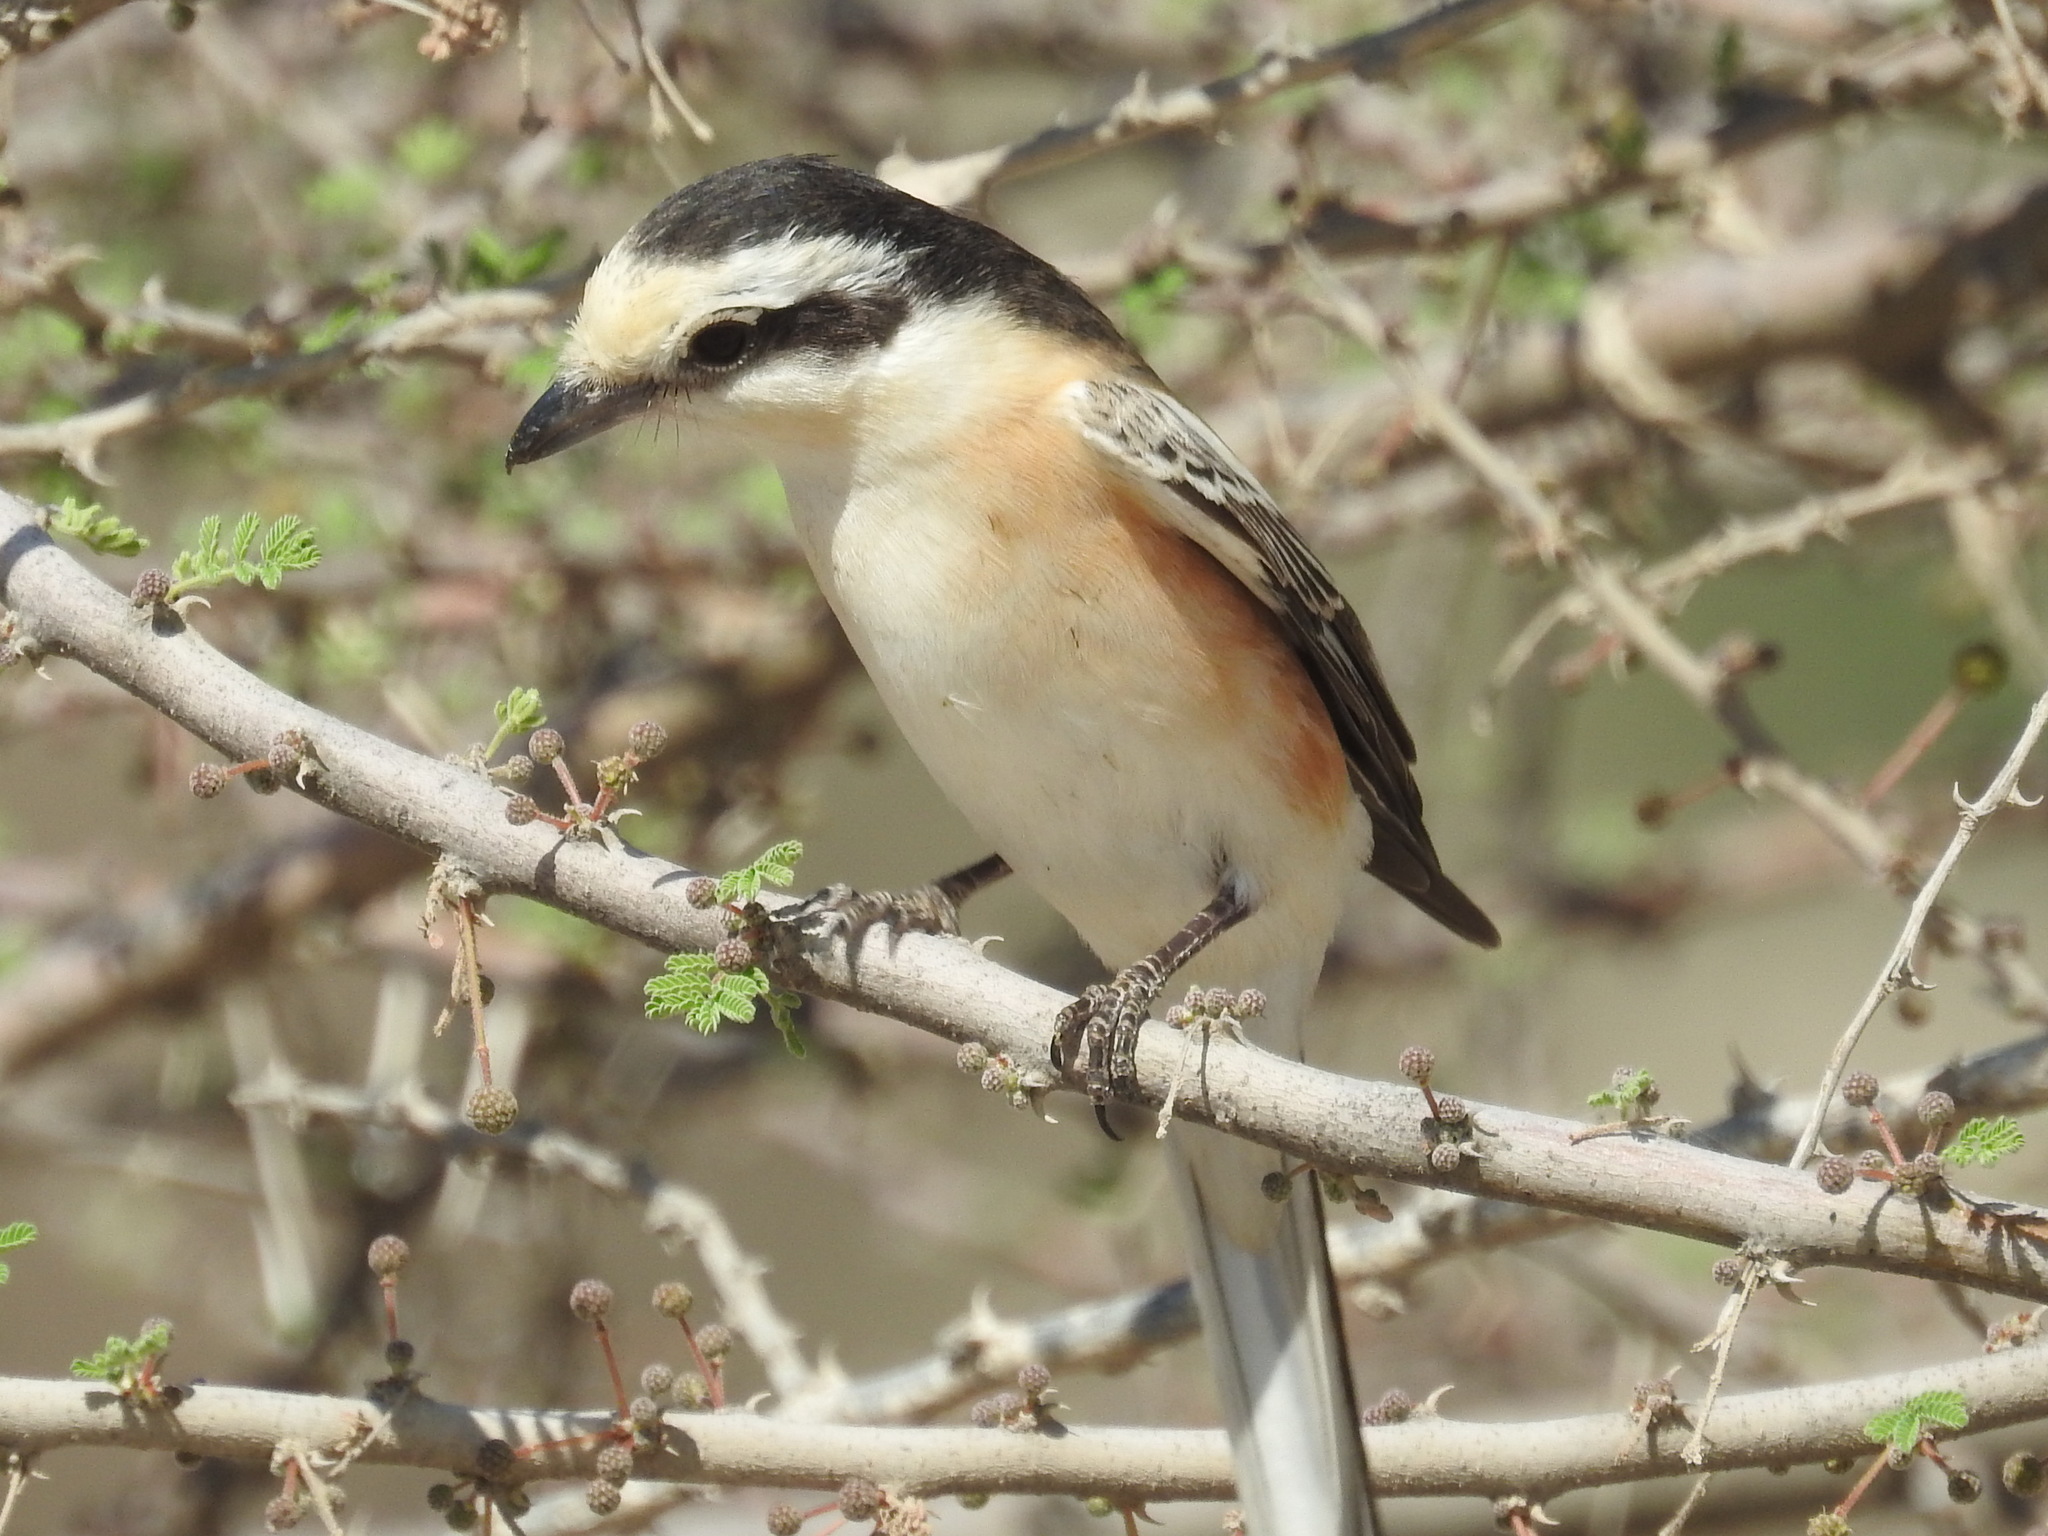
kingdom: Animalia
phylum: Chordata
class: Aves
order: Passeriformes
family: Laniidae
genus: Lanius
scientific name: Lanius nubicus
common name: Masked shrike
